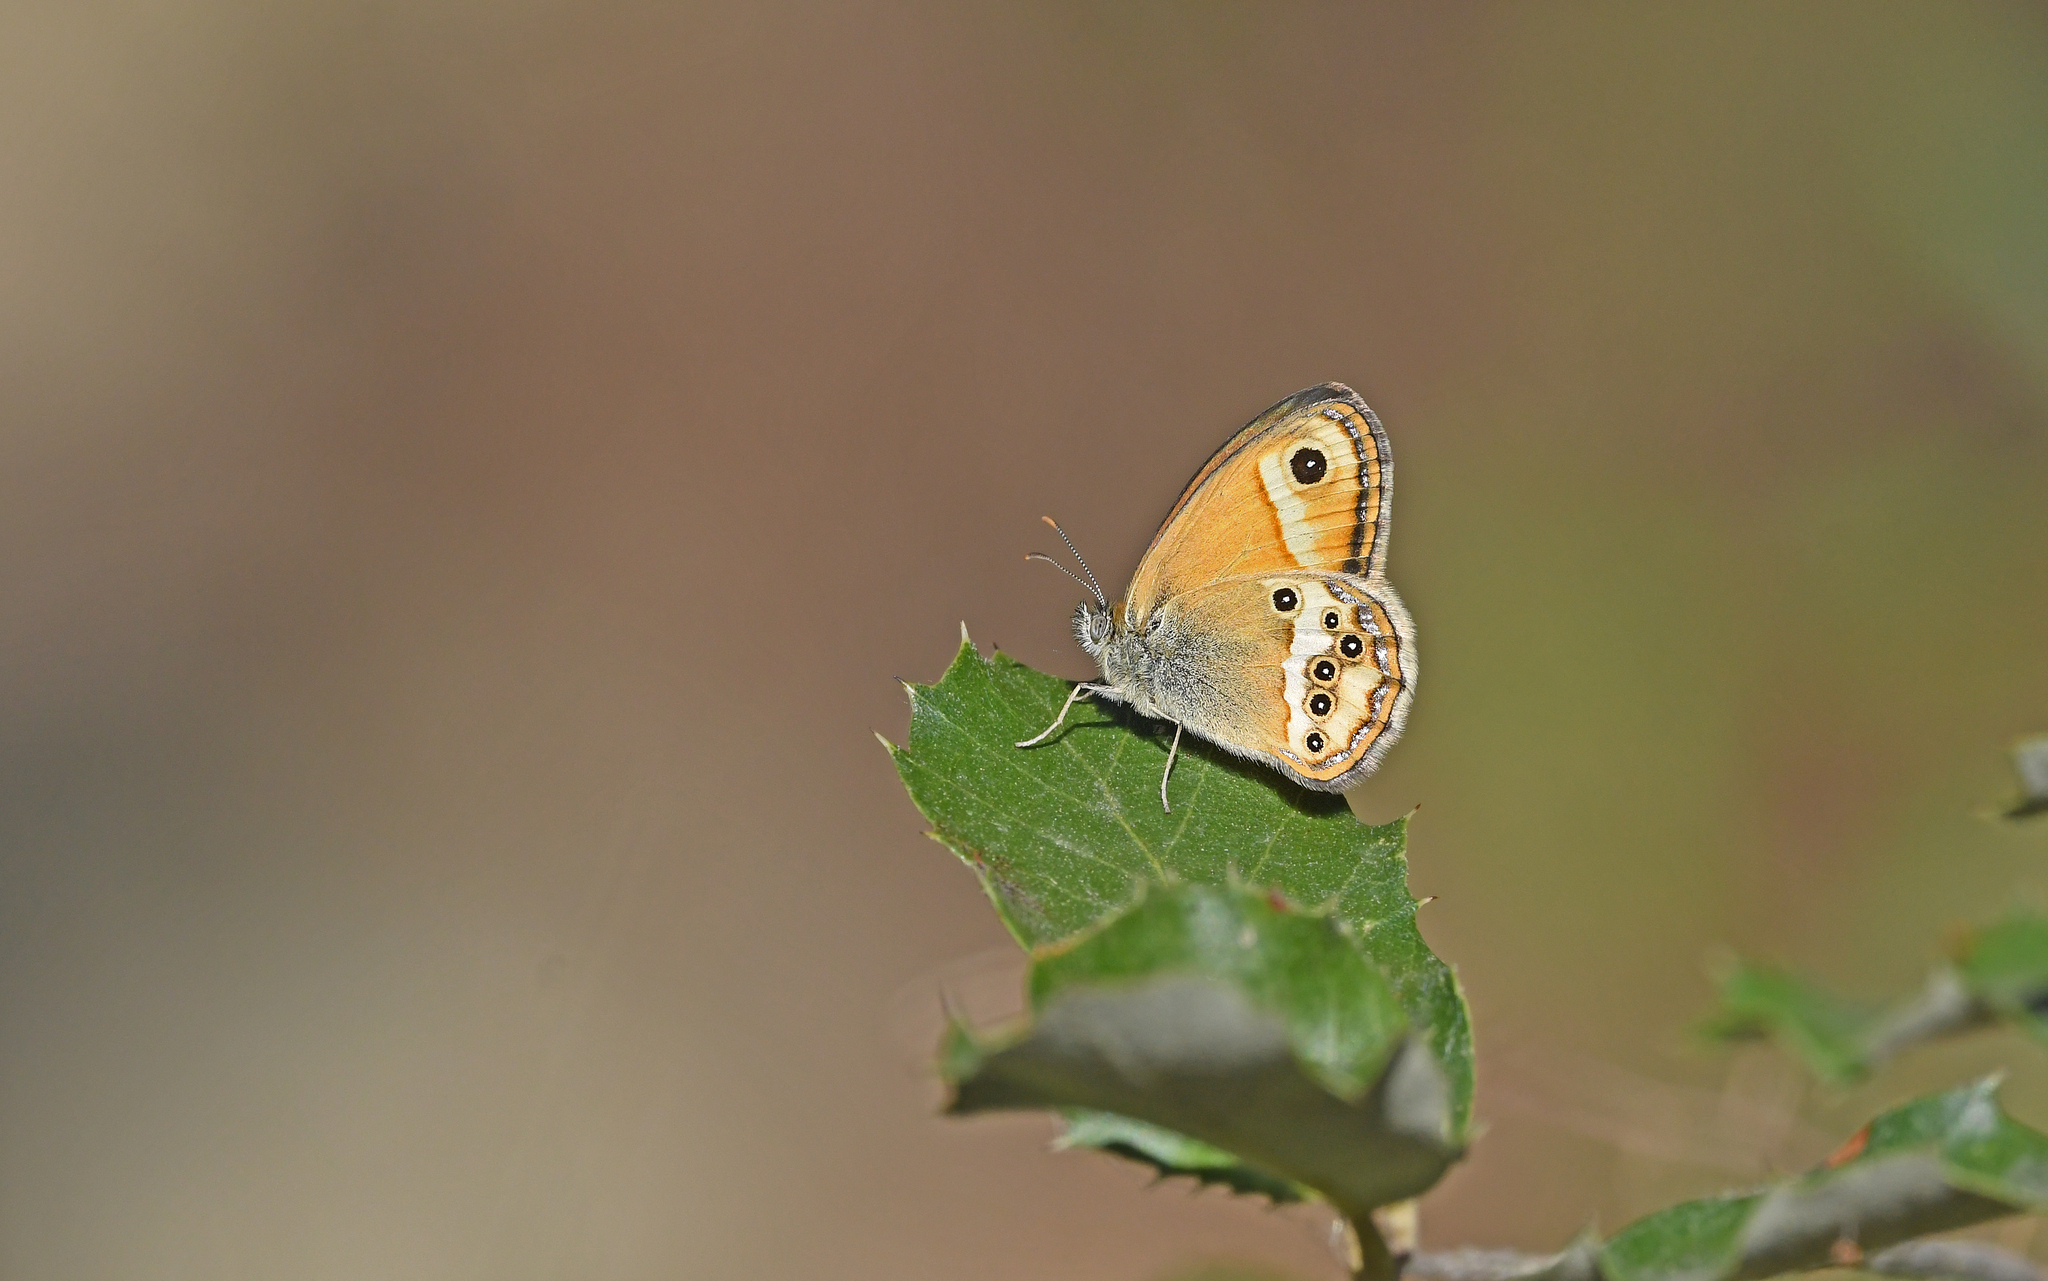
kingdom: Animalia
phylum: Arthropoda
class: Insecta
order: Lepidoptera
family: Nymphalidae
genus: Coenonympha
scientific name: Coenonympha dorus
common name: Dusky heath
